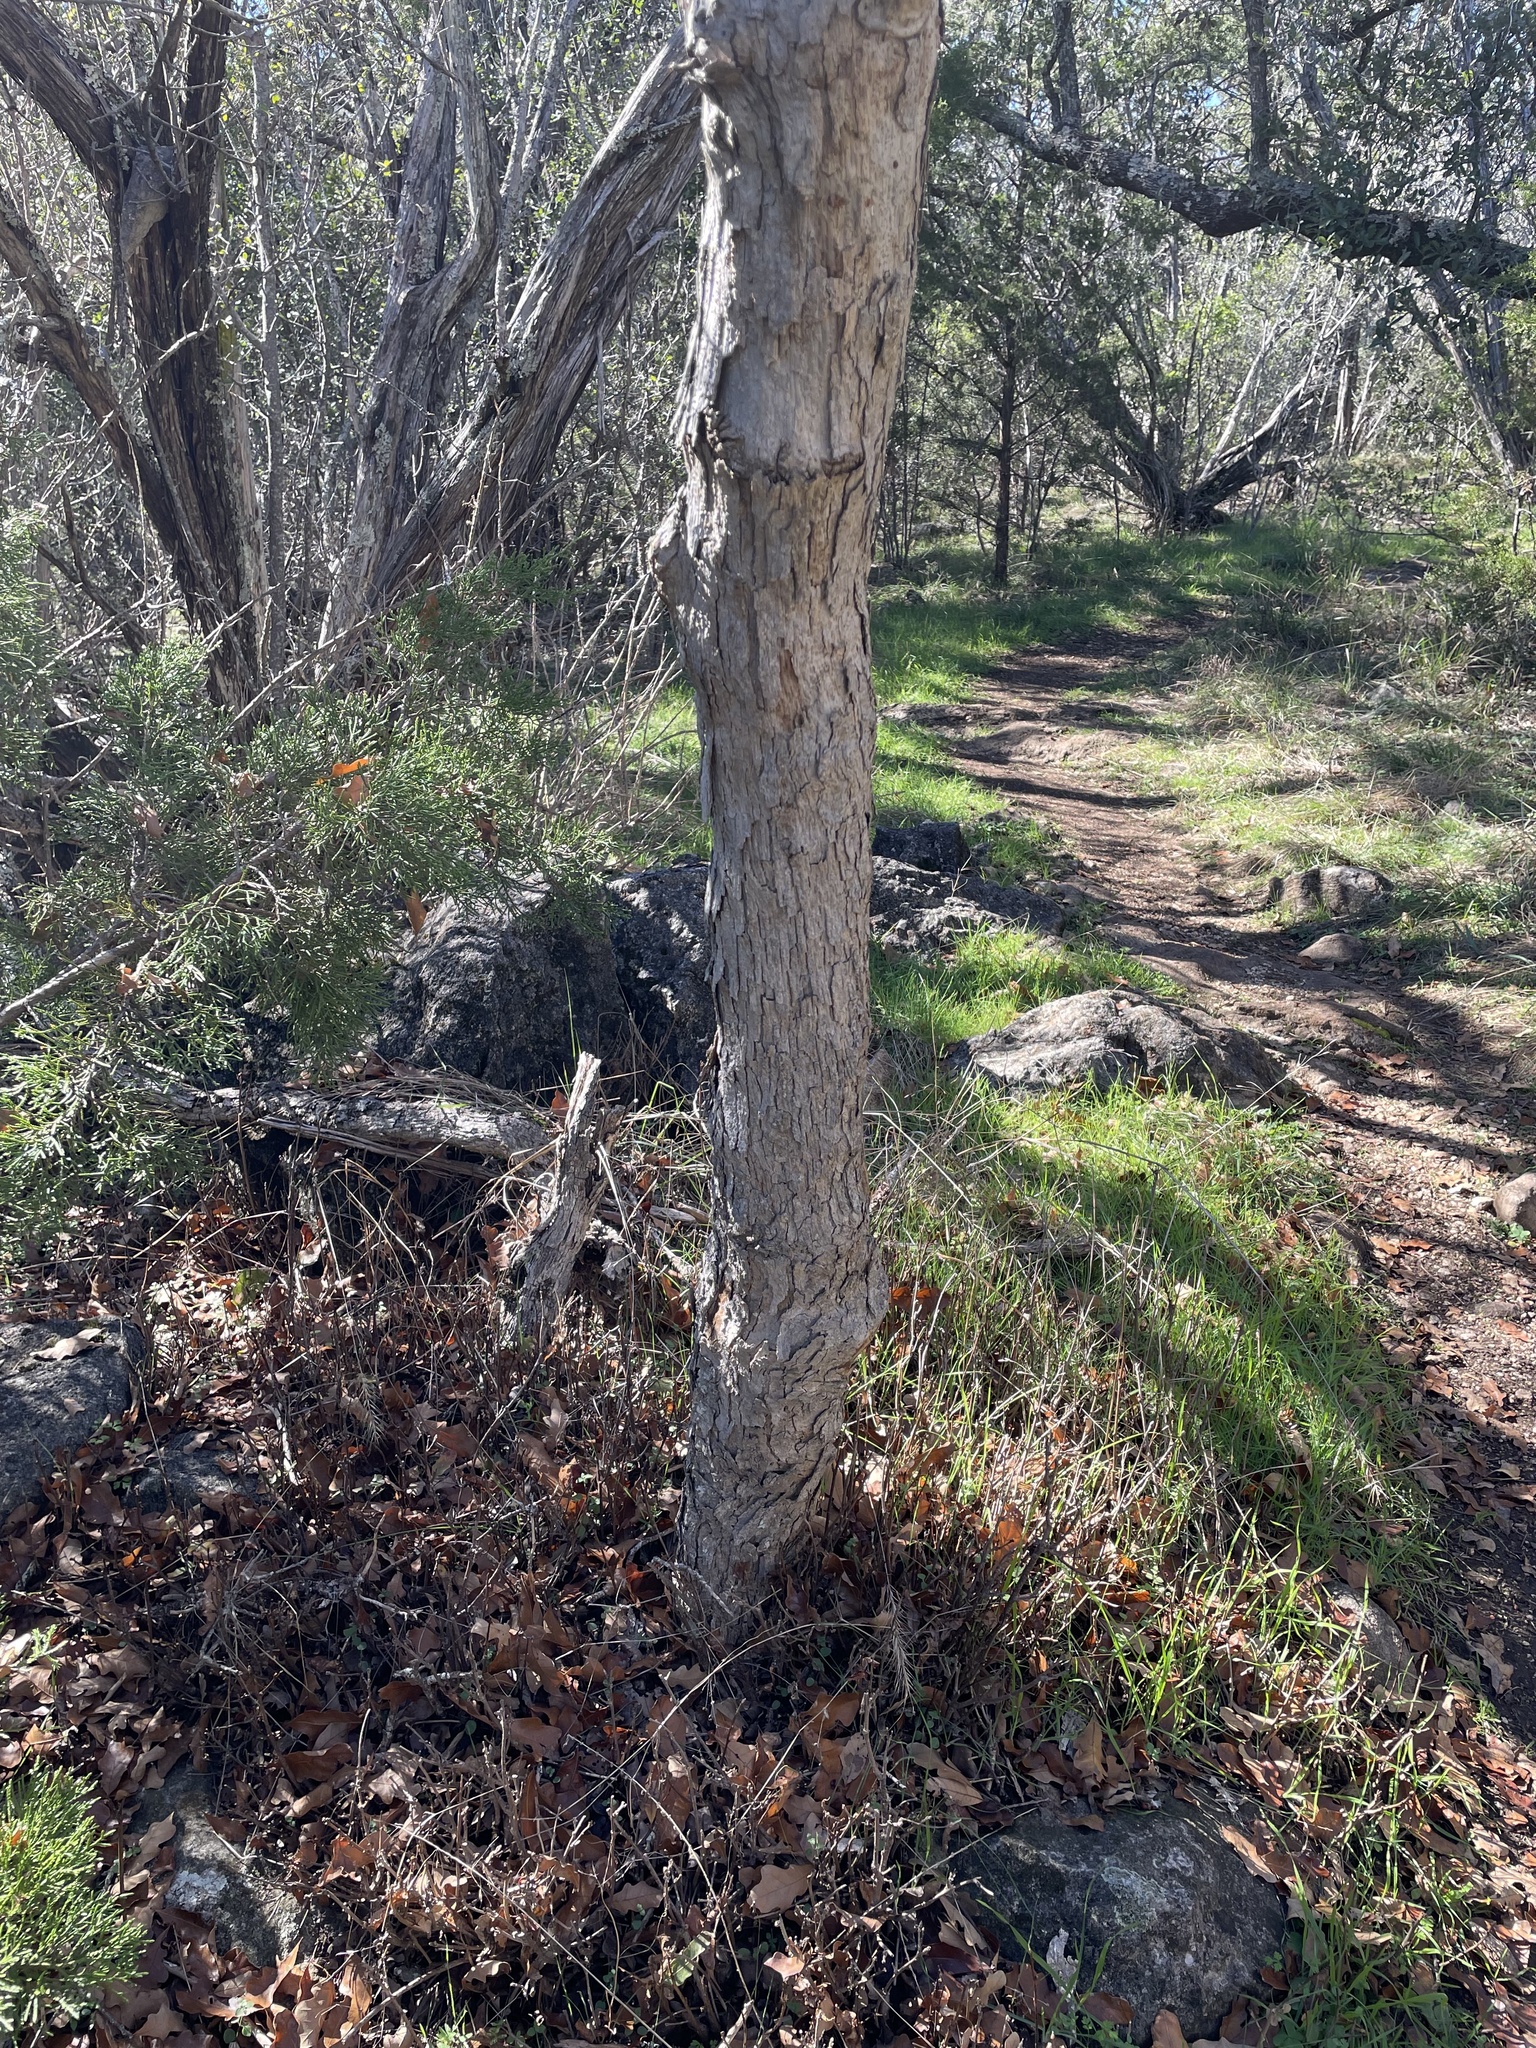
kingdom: Plantae
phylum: Tracheophyta
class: Magnoliopsida
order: Fagales
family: Fagaceae
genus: Quercus
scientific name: Quercus sinuata
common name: Durand oak
